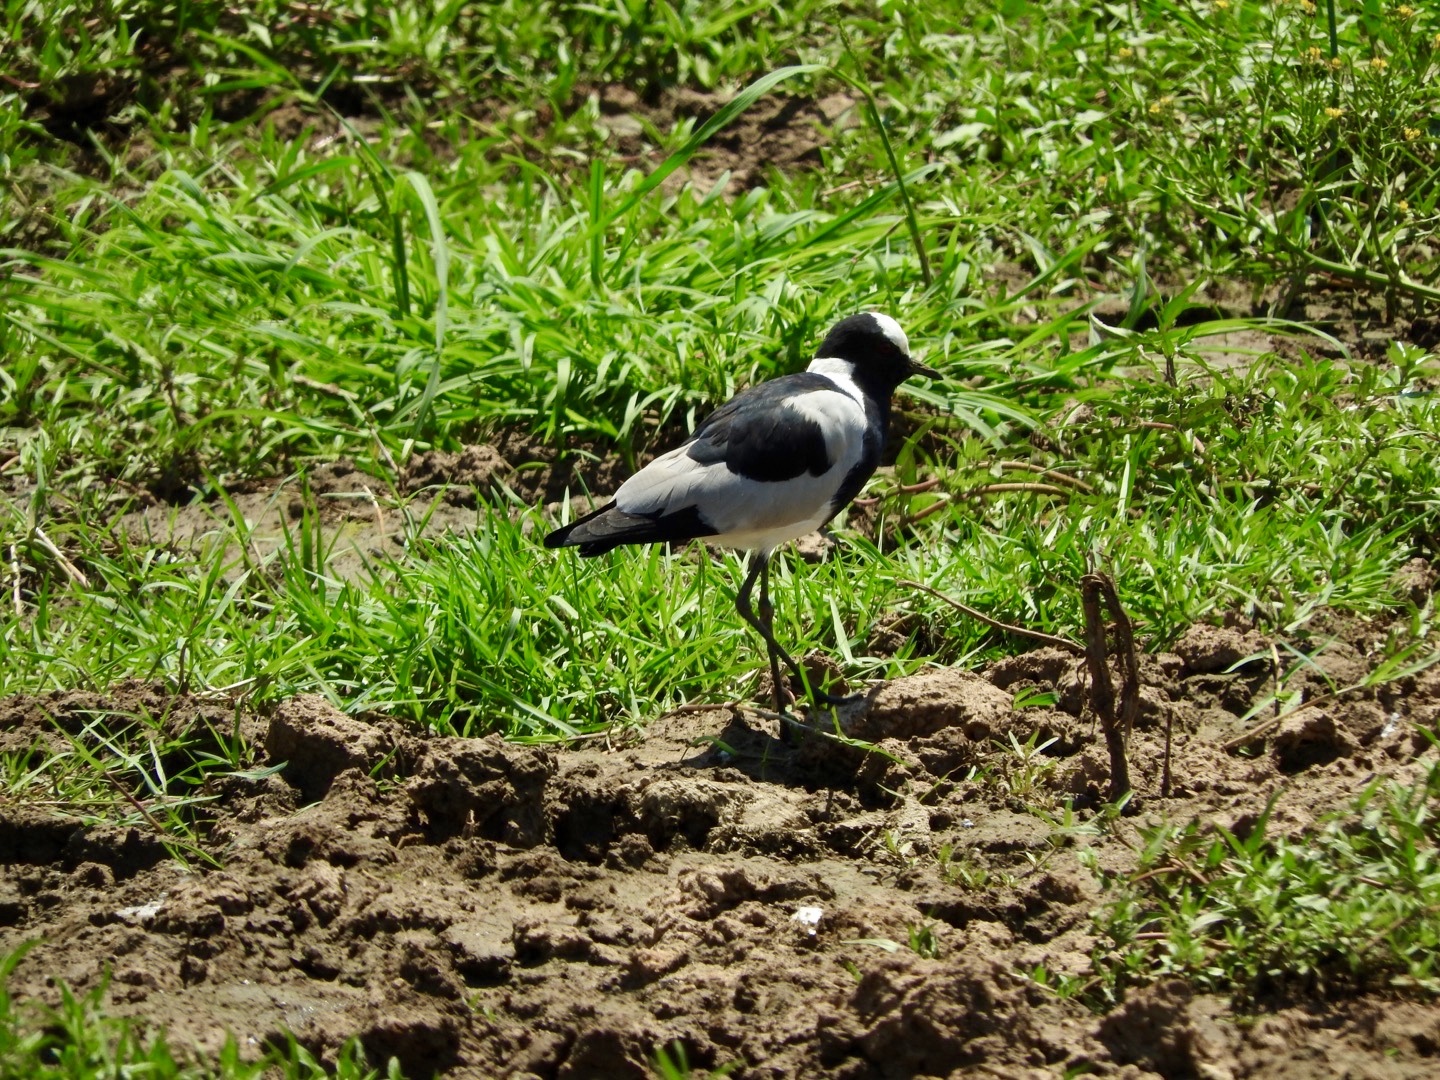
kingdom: Animalia
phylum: Chordata
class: Aves
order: Charadriiformes
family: Charadriidae
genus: Vanellus
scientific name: Vanellus armatus
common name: Blacksmith lapwing
